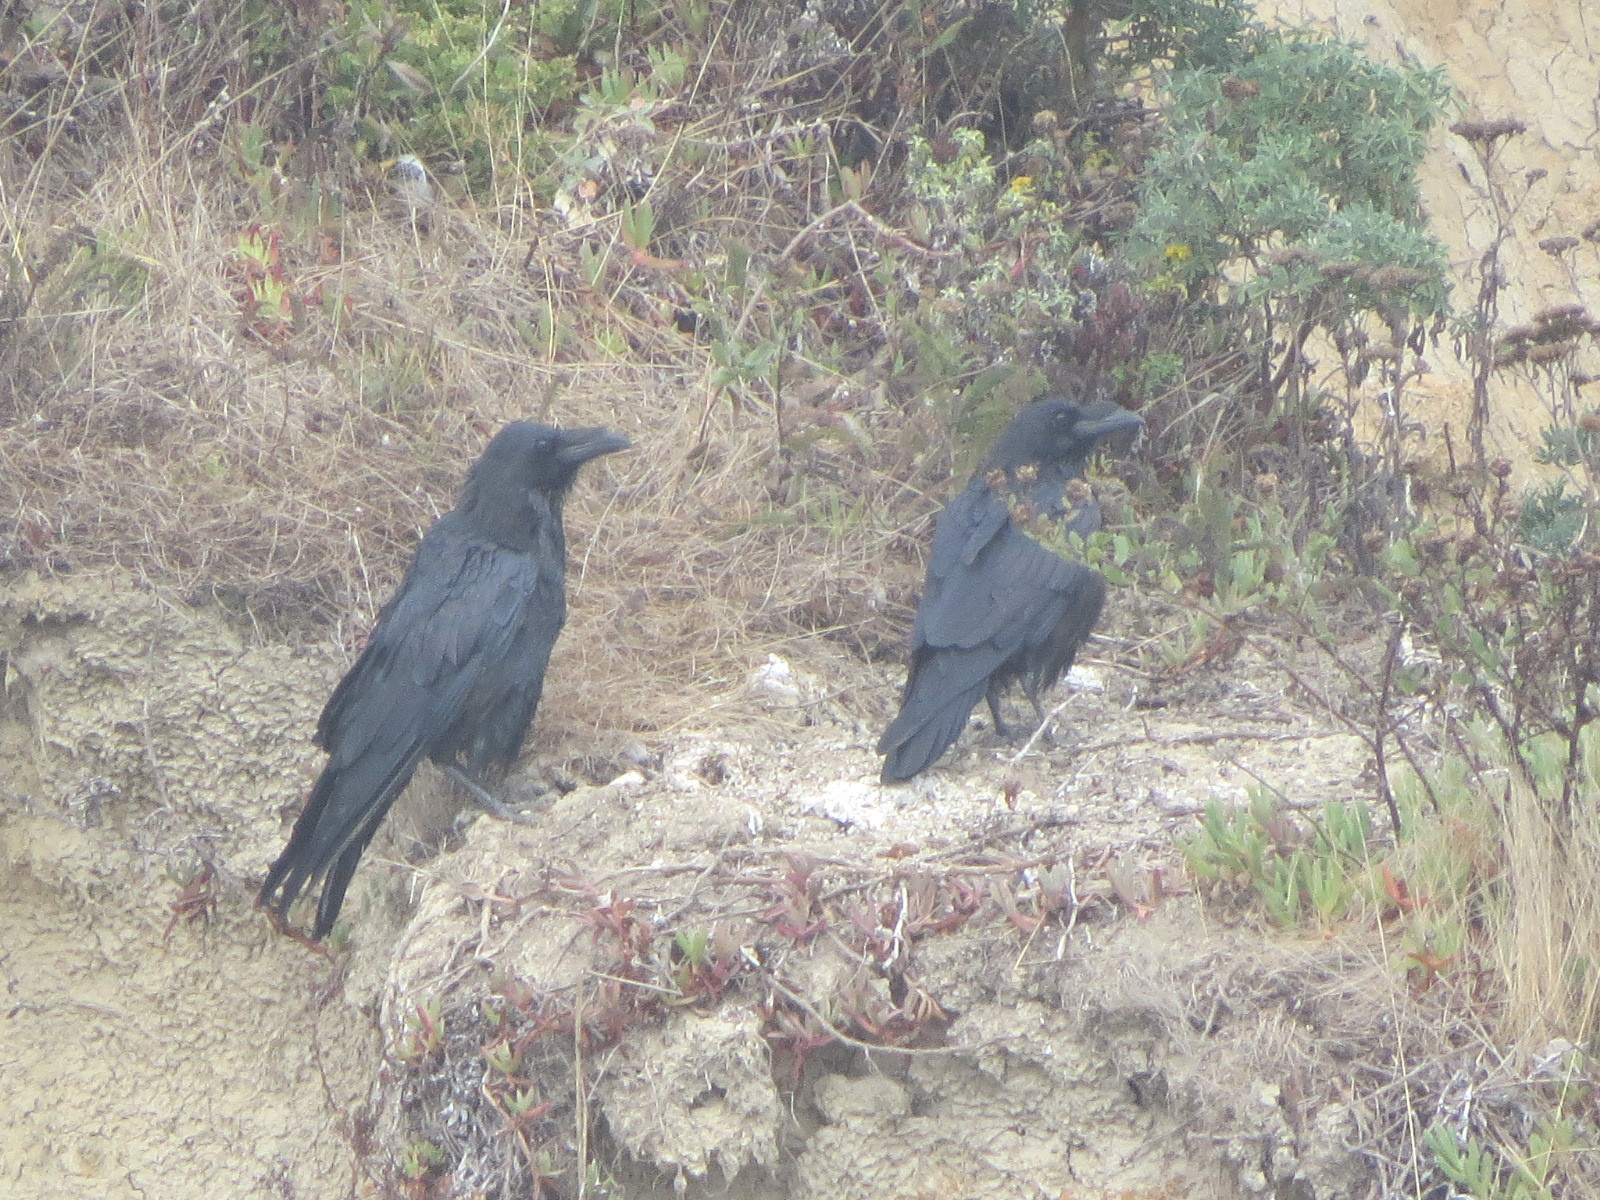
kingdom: Animalia
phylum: Chordata
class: Aves
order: Passeriformes
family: Corvidae
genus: Corvus
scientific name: Corvus corax
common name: Common raven
